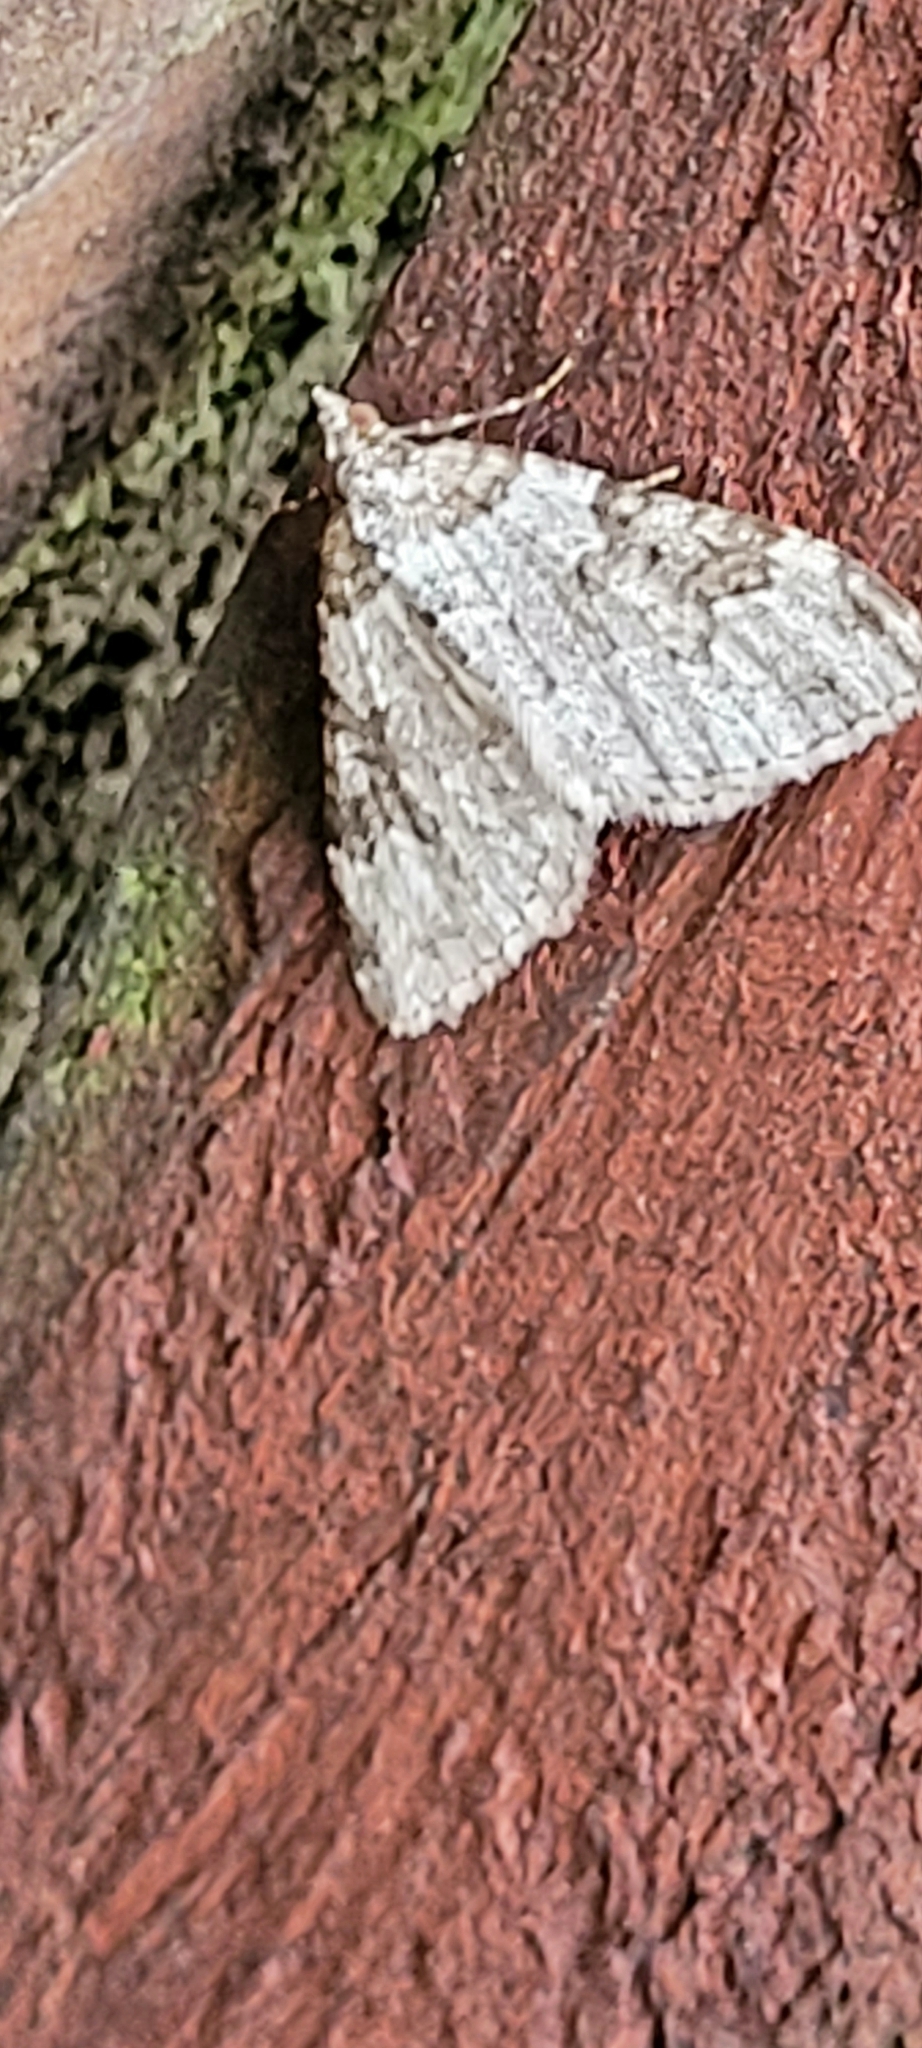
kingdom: Animalia
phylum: Arthropoda
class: Insecta
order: Lepidoptera
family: Geometridae
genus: Xanthorhoe
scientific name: Xanthorhoe fluctuata
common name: Garden carpet
